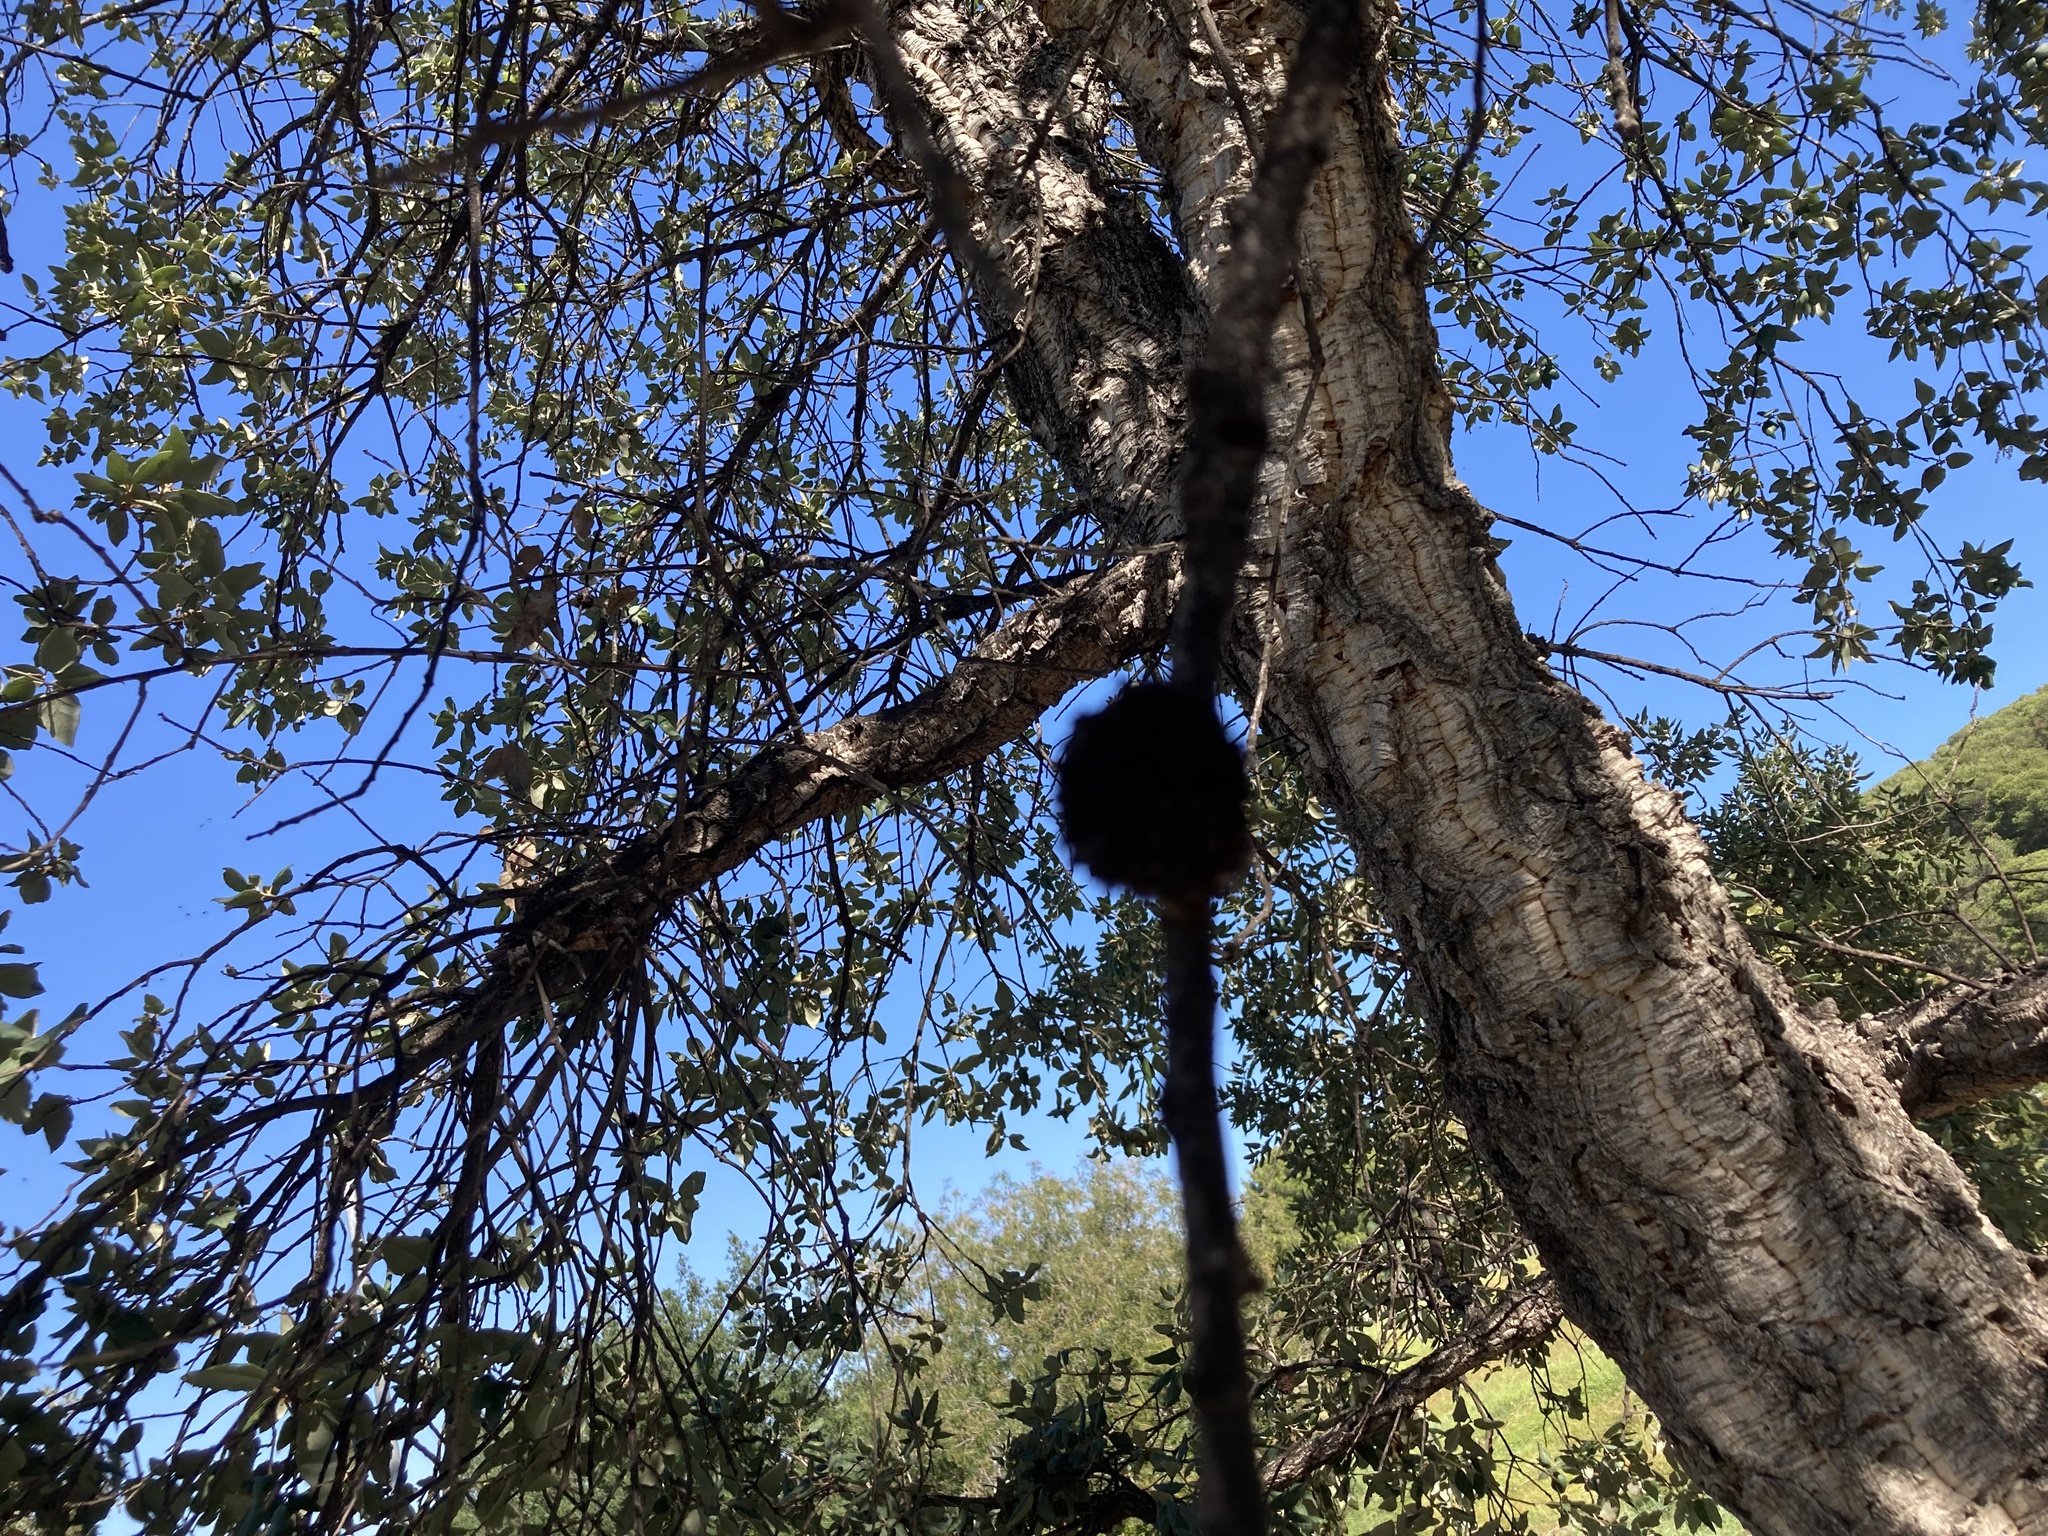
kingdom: Animalia
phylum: Arthropoda
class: Arachnida
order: Trombidiformes
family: Eriophyidae
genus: Aceria
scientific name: Aceria suberina
